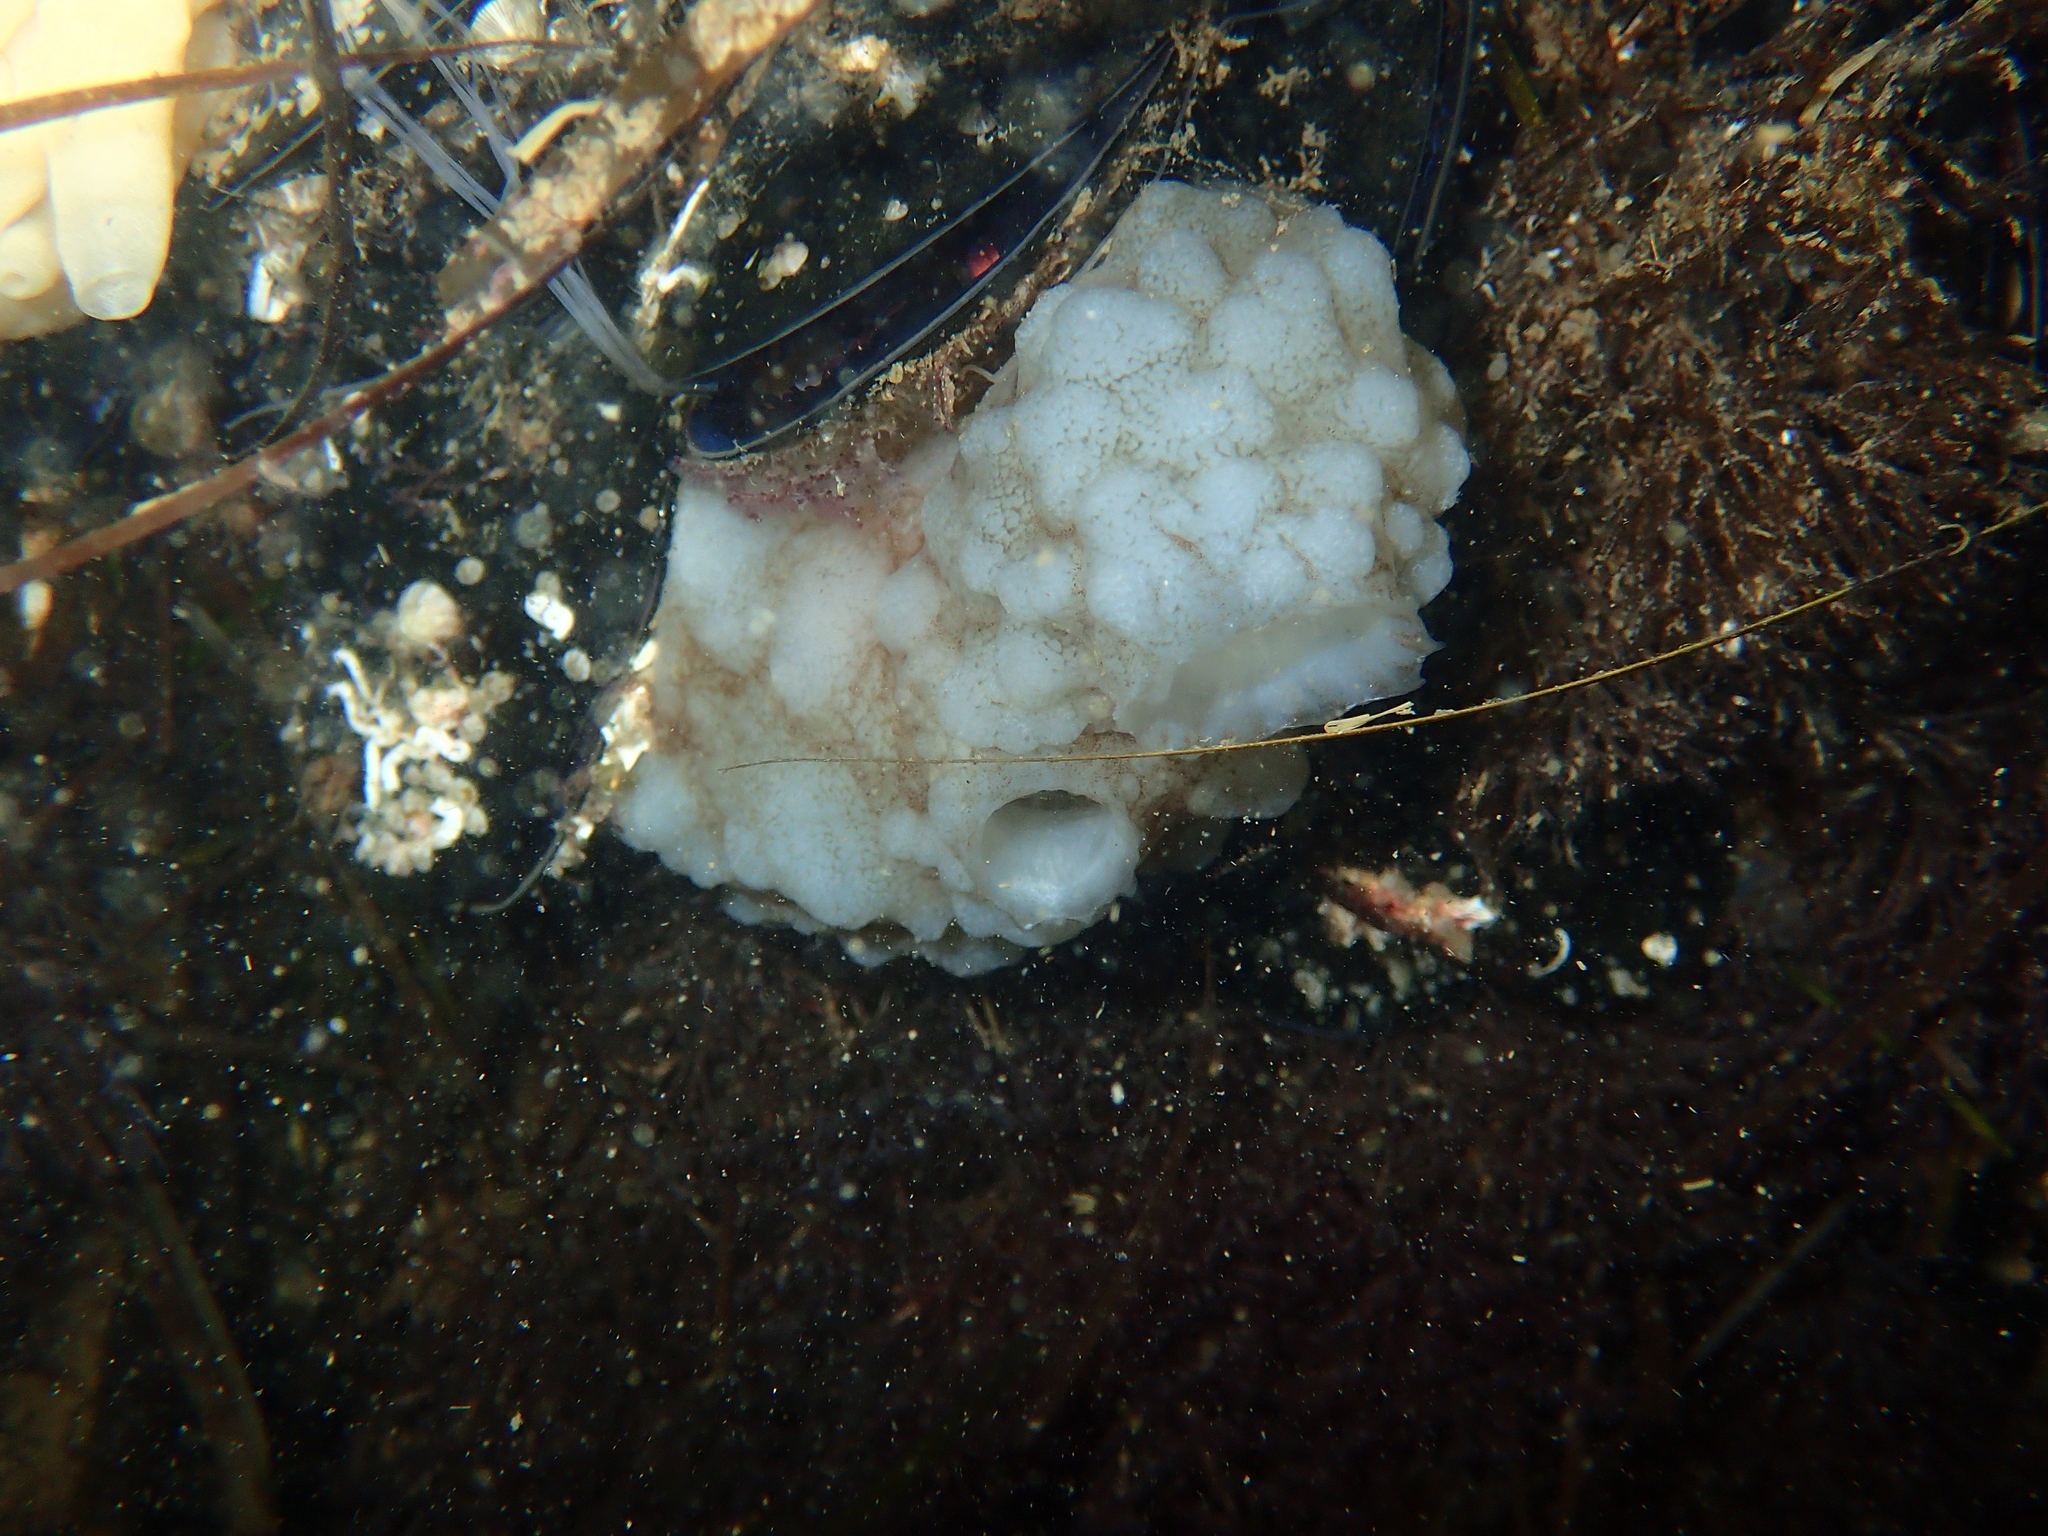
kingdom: Animalia
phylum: Chordata
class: Ascidiacea
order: Phlebobranchia
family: Ascidiidae
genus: Phallusia
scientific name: Phallusia mammillata
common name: Neptune's heart sea squirt
